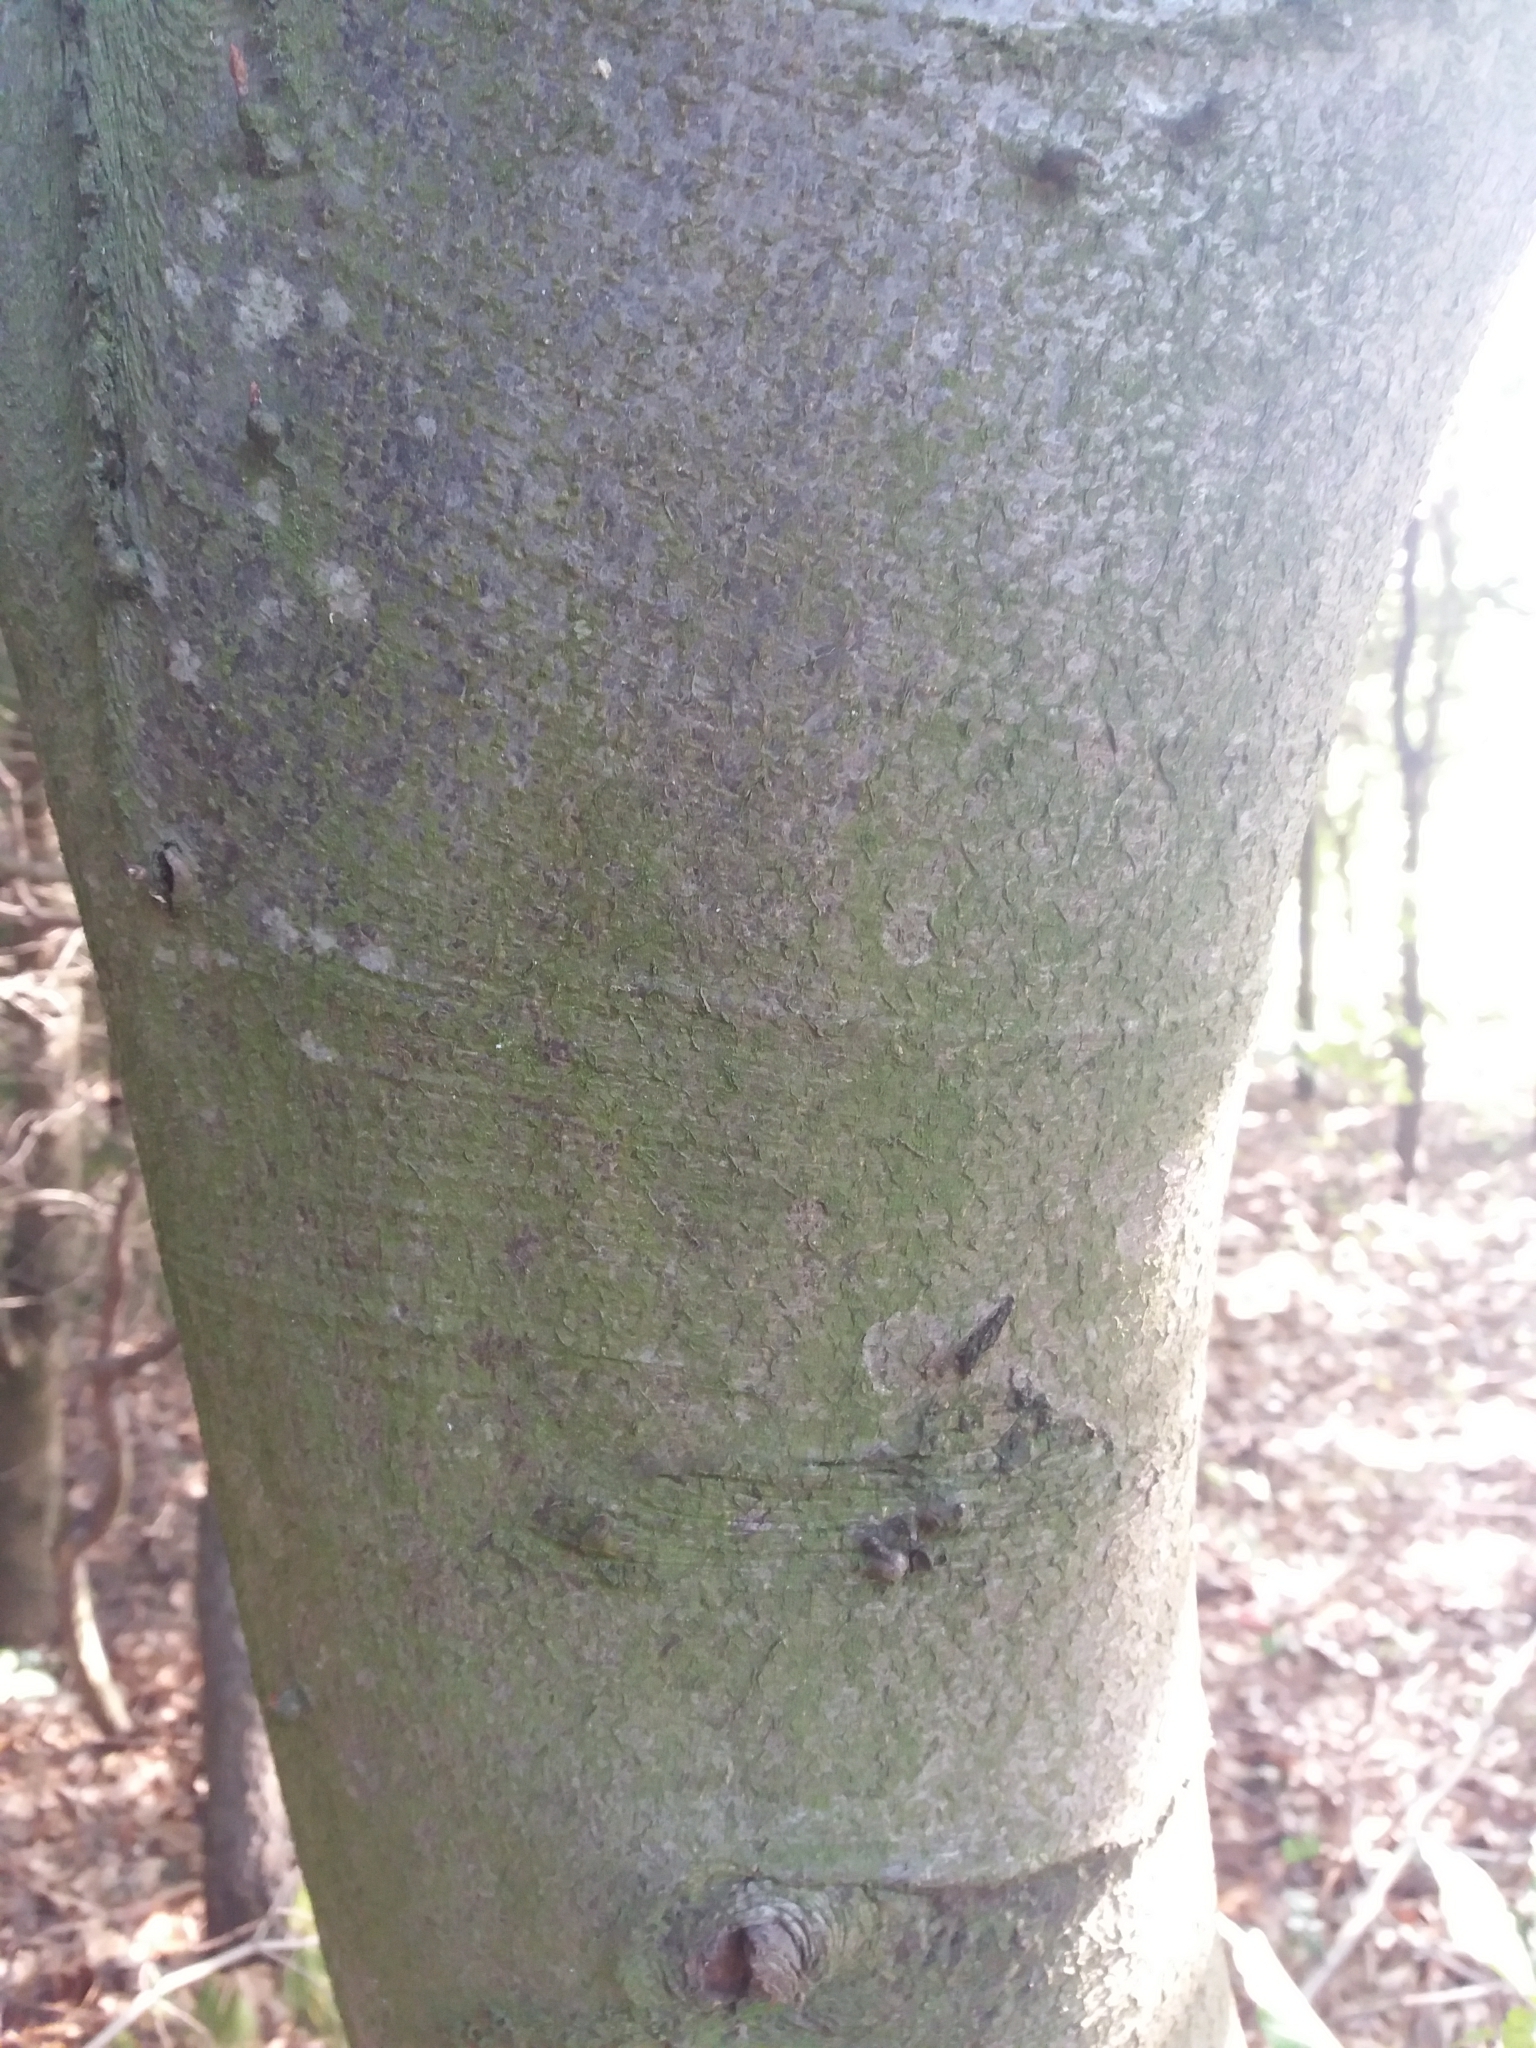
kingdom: Plantae
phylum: Tracheophyta
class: Magnoliopsida
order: Fagales
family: Fagaceae
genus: Fagus
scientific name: Fagus sylvatica
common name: Beech
